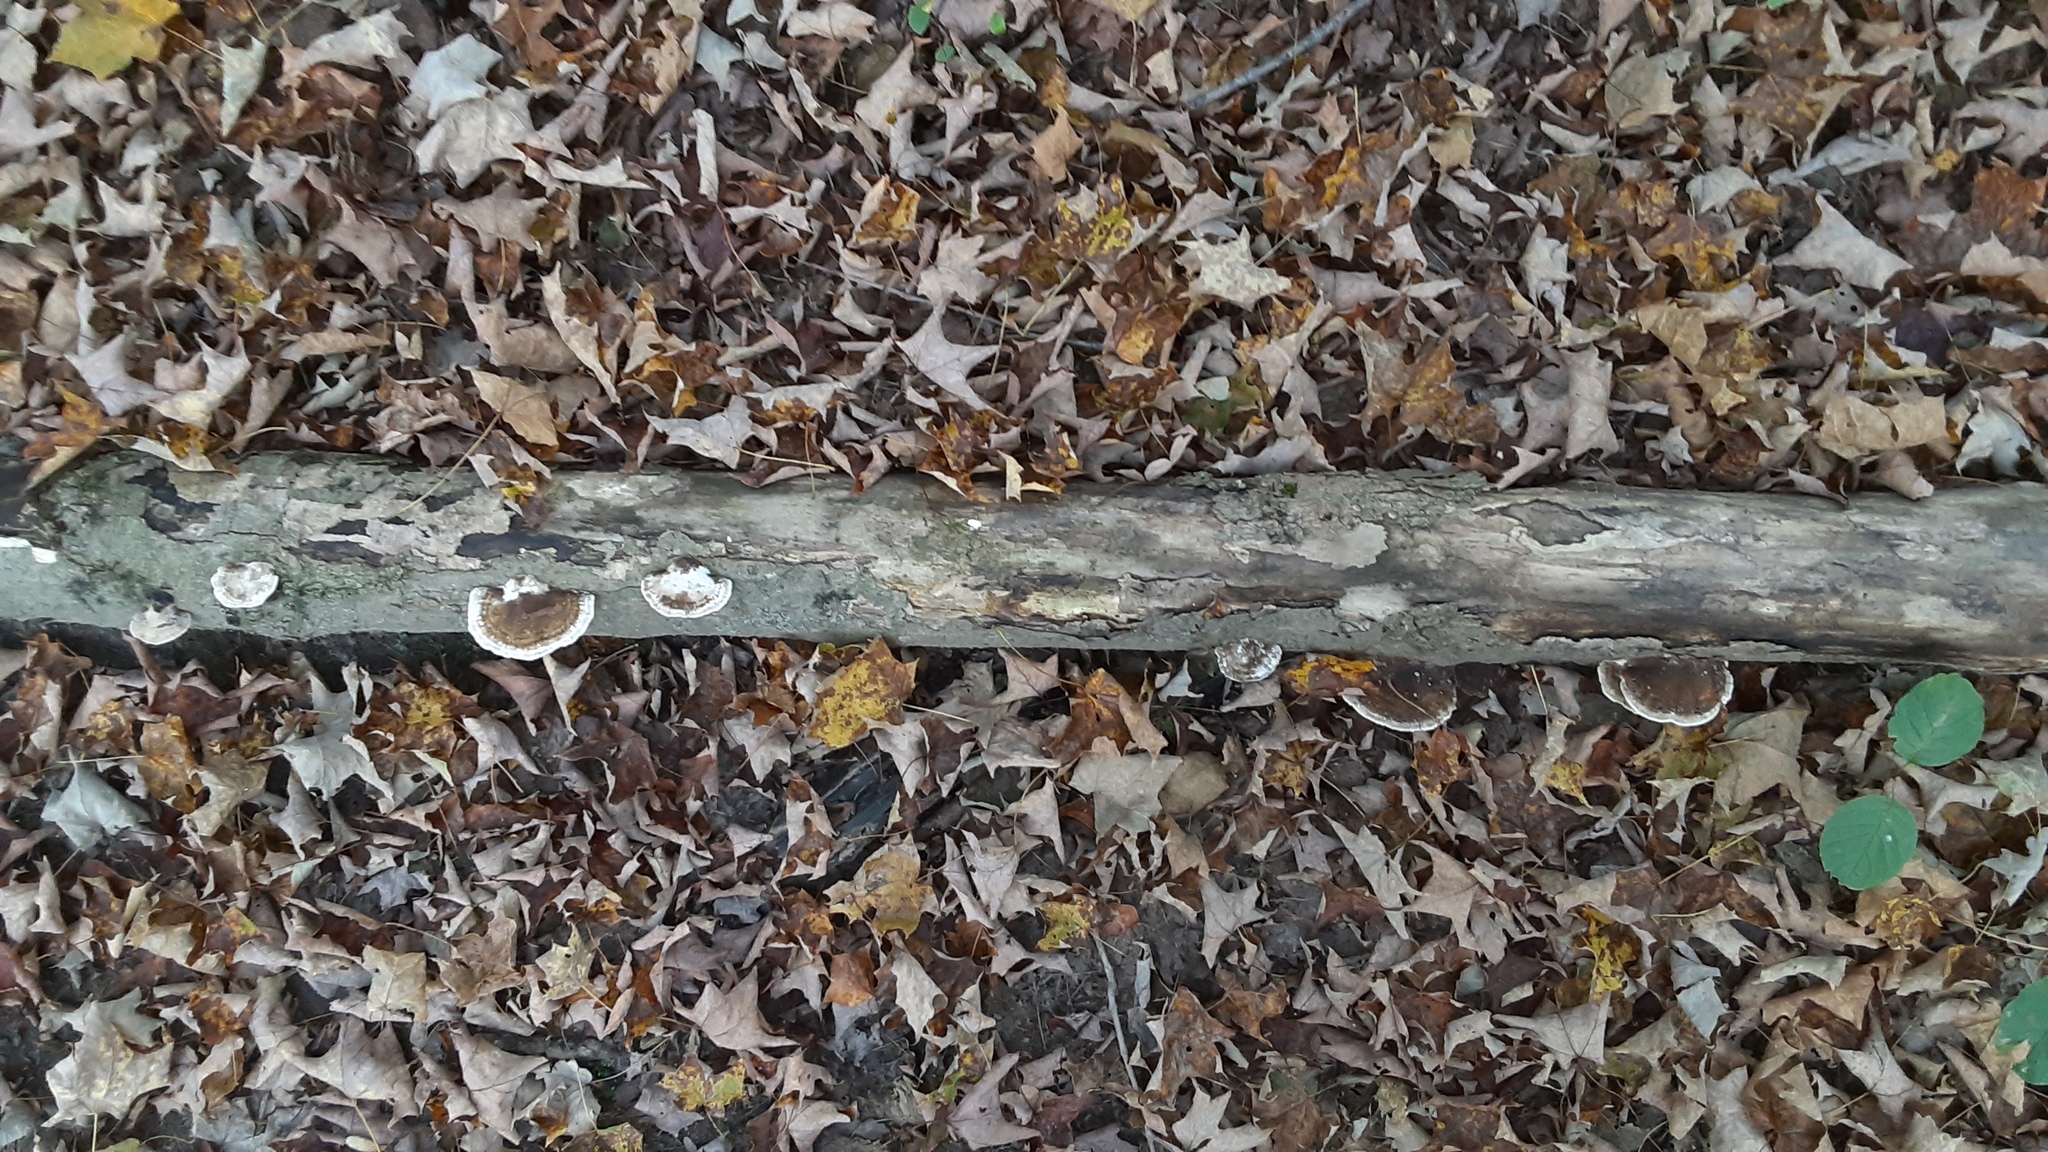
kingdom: Fungi
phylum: Basidiomycota
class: Agaricomycetes
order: Polyporales
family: Polyporaceae
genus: Daedaleopsis
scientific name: Daedaleopsis confragosa
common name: Blushing bracket
